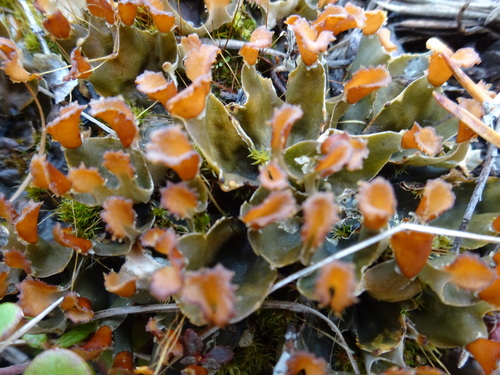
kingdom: Fungi
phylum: Ascomycota
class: Lecanoromycetes
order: Peltigerales
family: Peltigeraceae
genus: Peltigera
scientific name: Peltigera didactyla
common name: Alternating dog lichen
